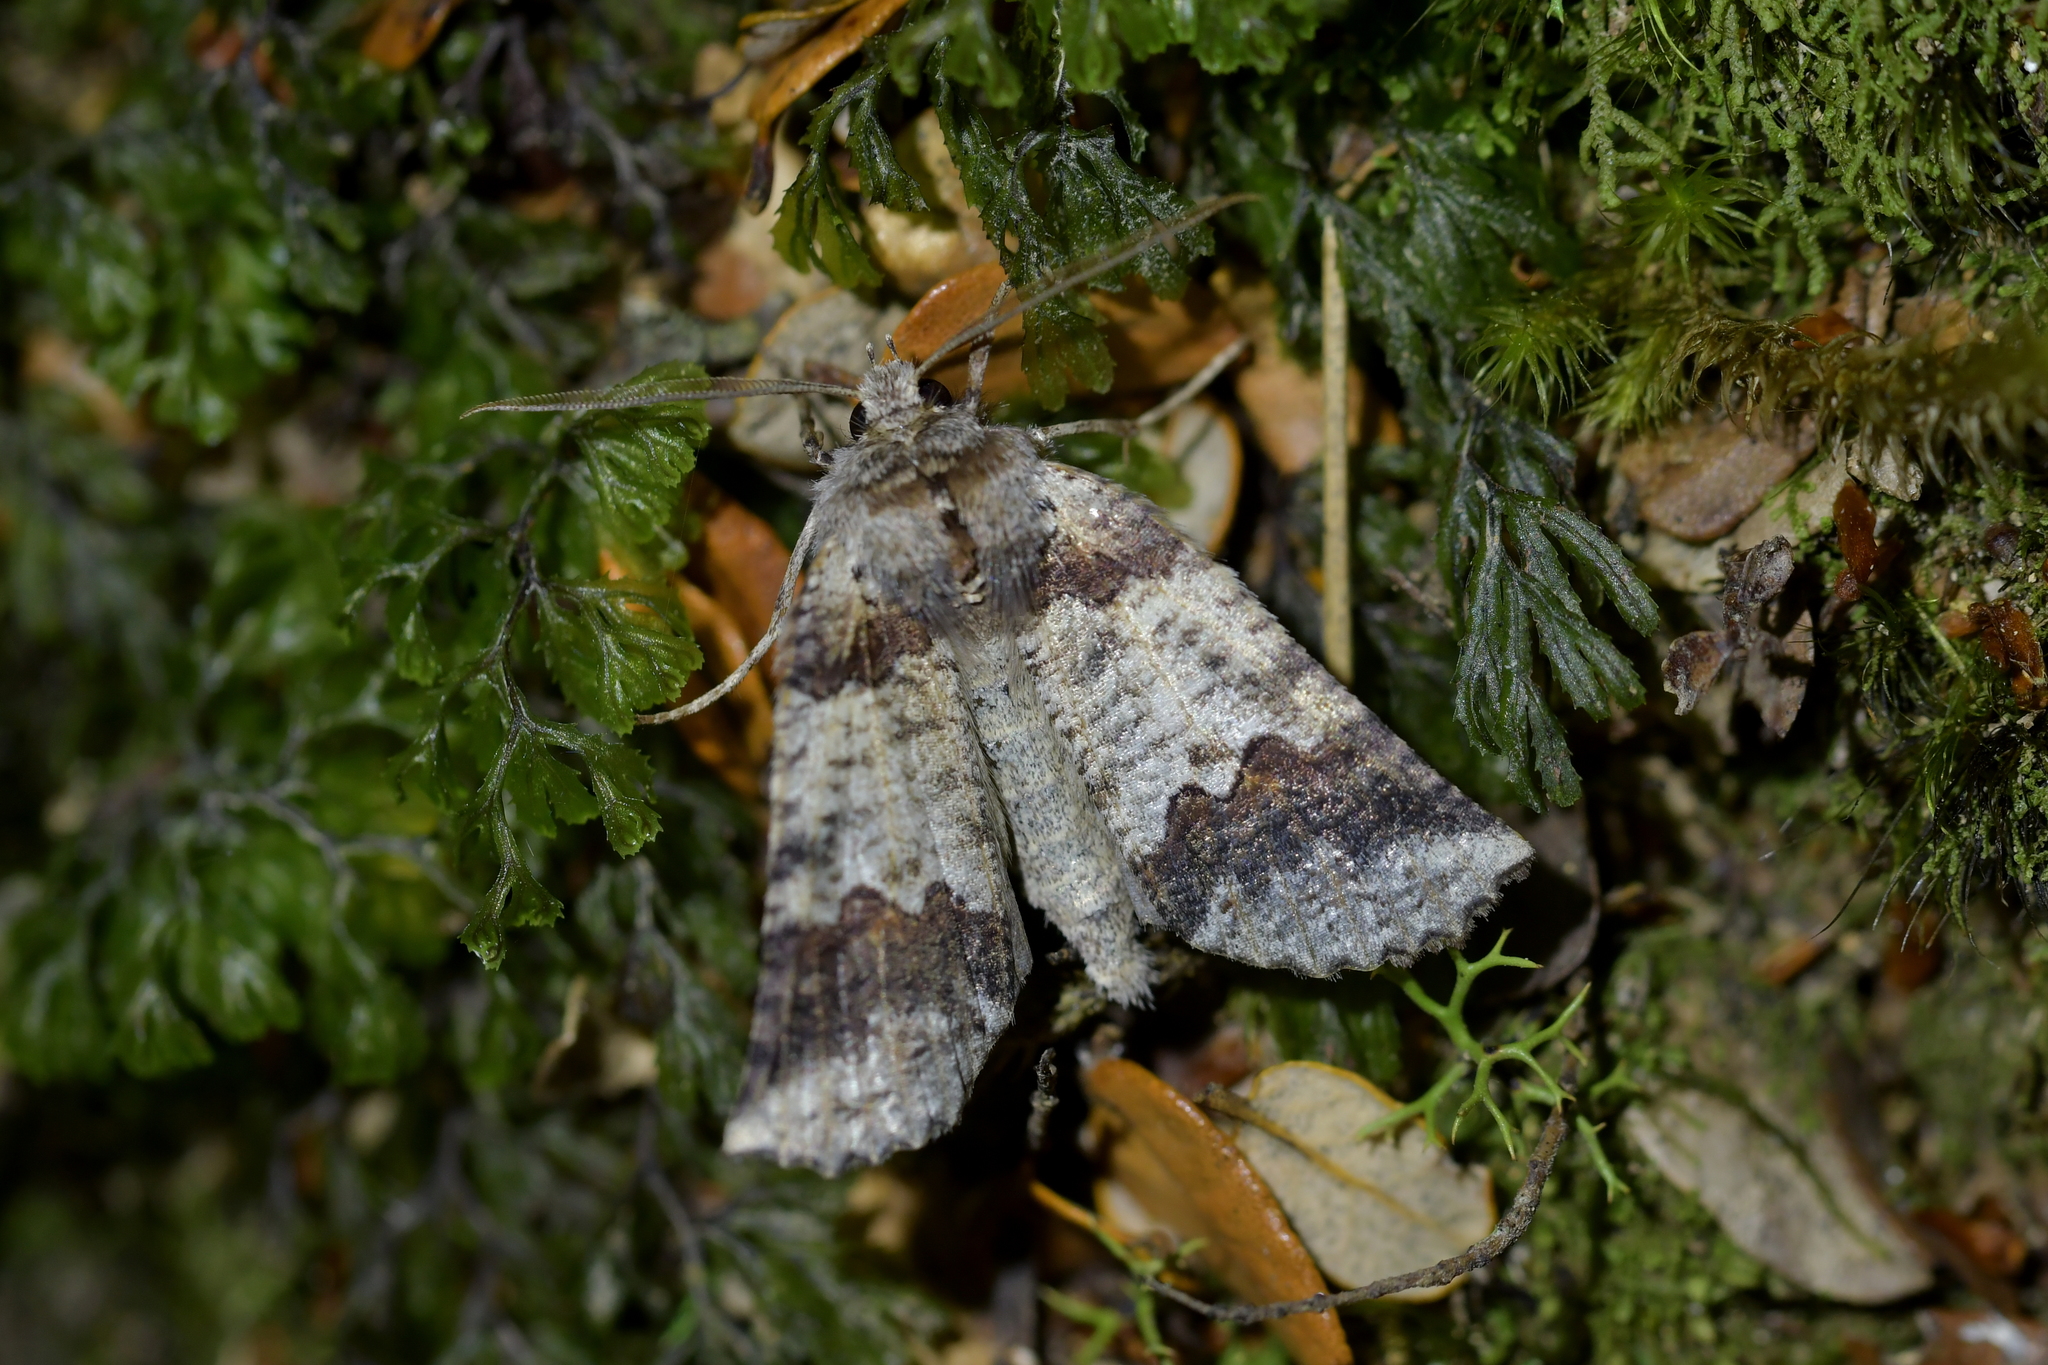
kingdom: Animalia
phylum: Arthropoda
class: Insecta
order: Lepidoptera
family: Geometridae
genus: Declana
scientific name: Declana
